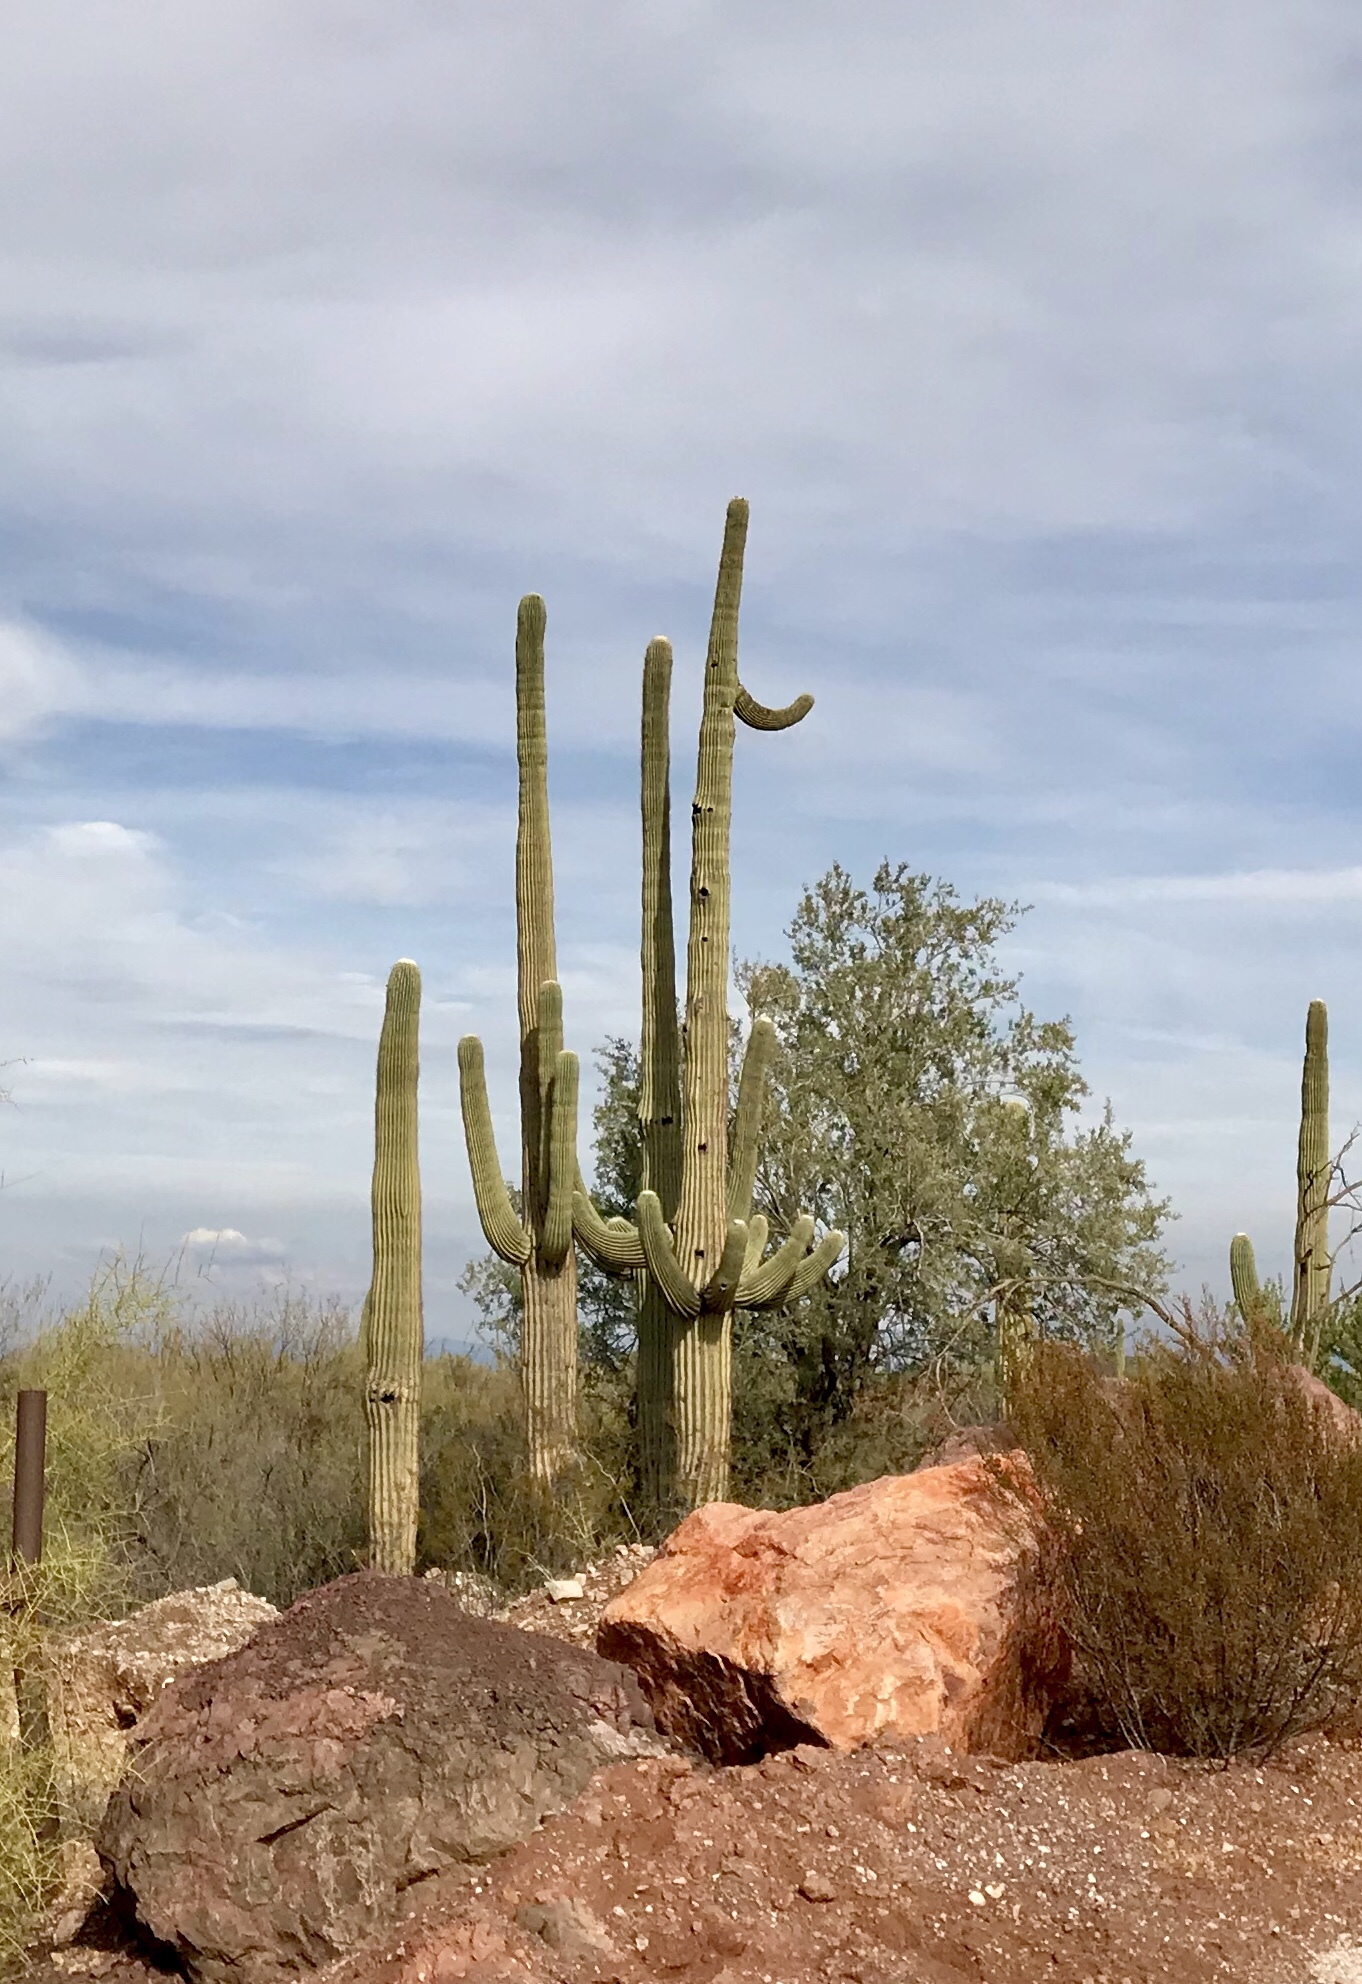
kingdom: Plantae
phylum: Tracheophyta
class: Magnoliopsida
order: Caryophyllales
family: Cactaceae
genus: Carnegiea
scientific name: Carnegiea gigantea
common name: Saguaro
